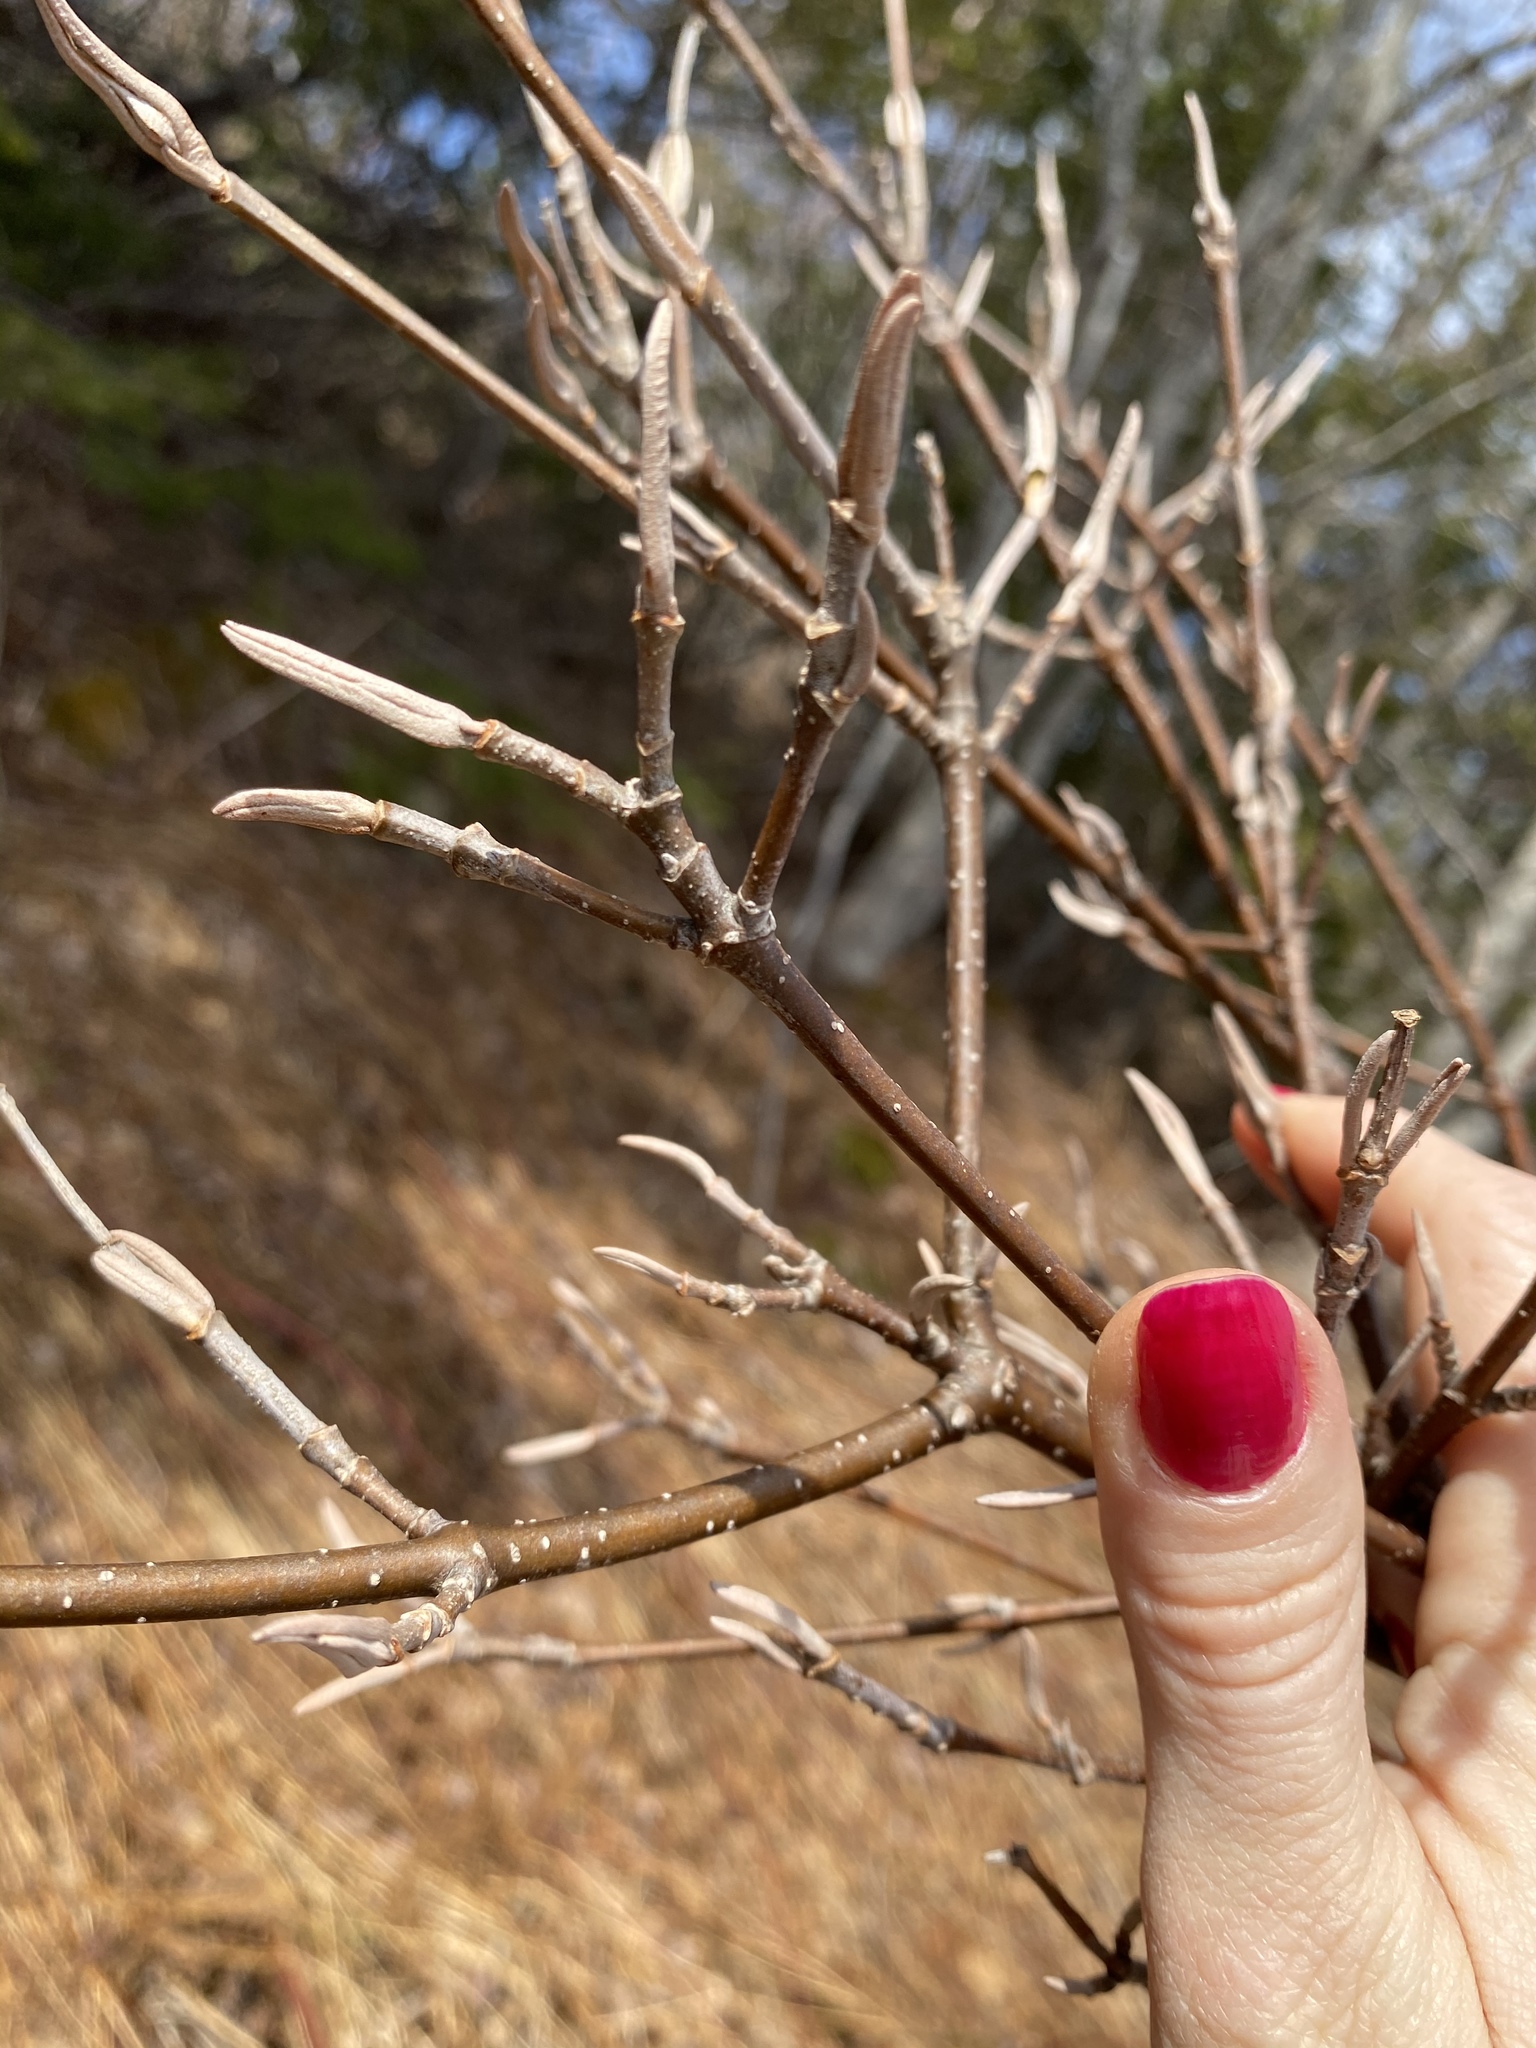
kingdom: Plantae
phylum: Tracheophyta
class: Magnoliopsida
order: Dipsacales
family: Viburnaceae
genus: Viburnum
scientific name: Viburnum cassinoides
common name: Swamp haw
